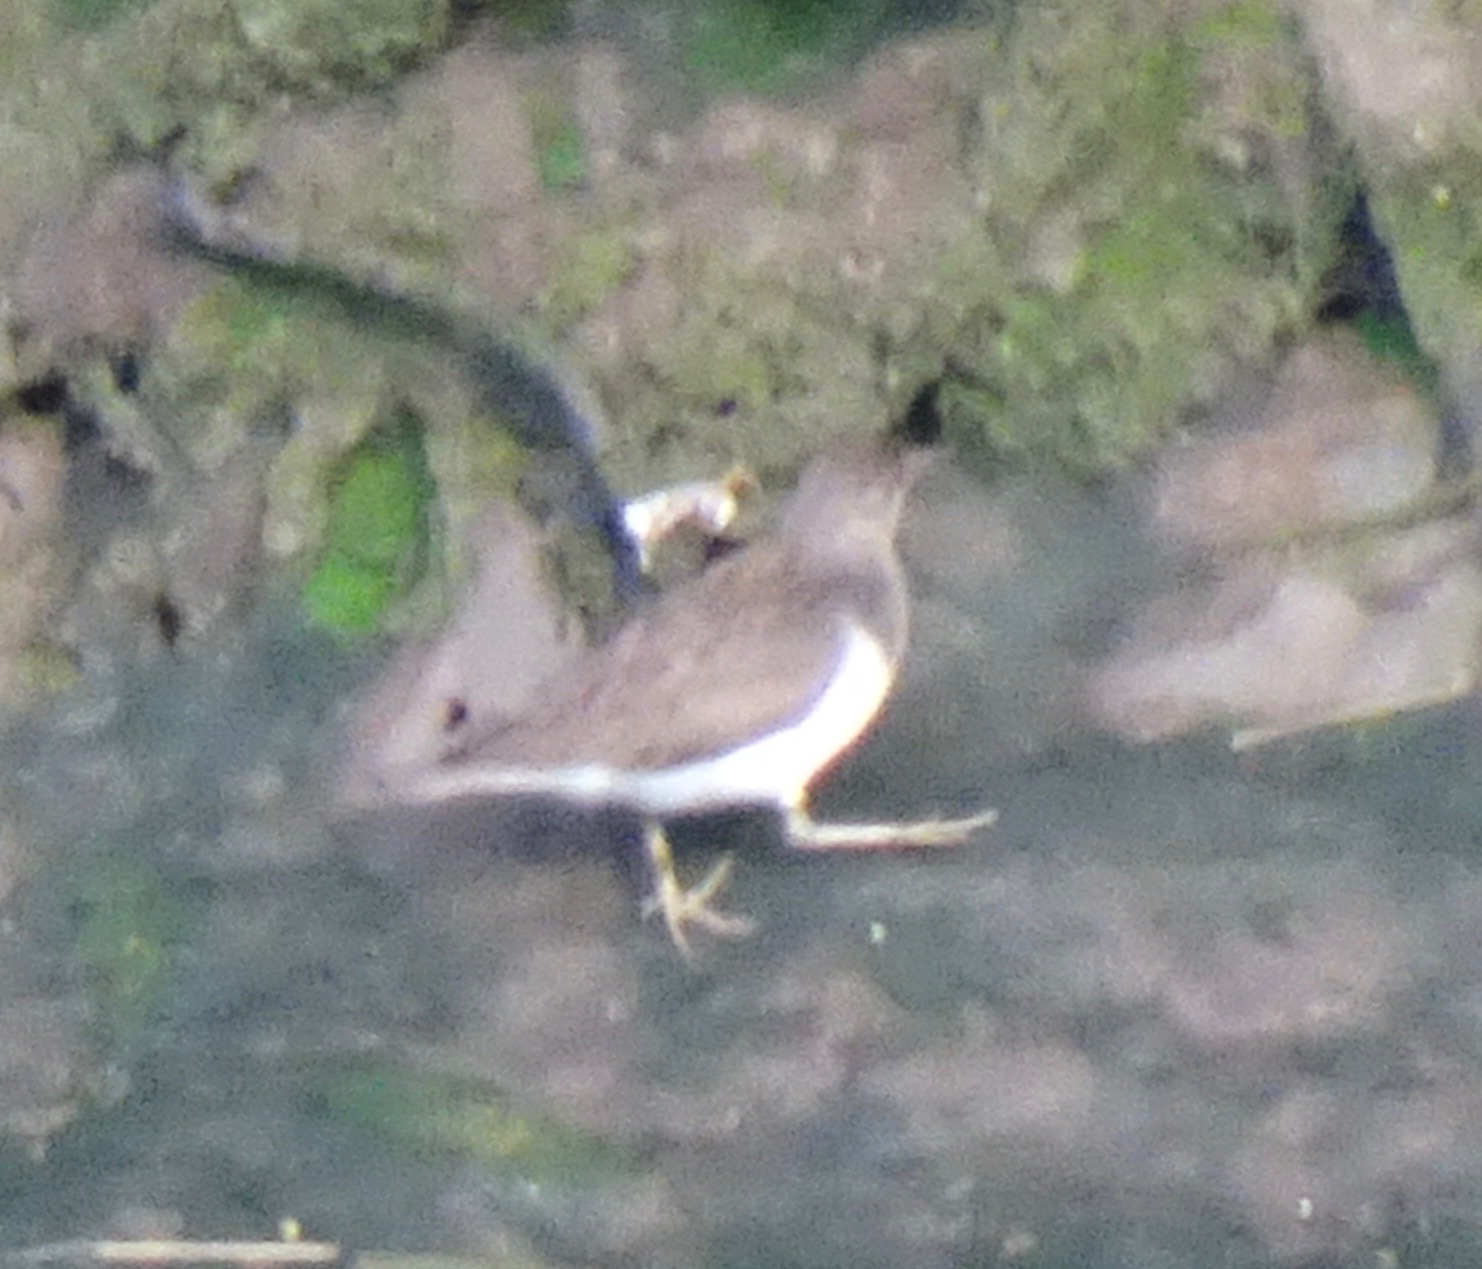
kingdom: Animalia
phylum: Chordata
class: Aves
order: Charadriiformes
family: Scolopacidae
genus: Actitis
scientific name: Actitis hypoleucos
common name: Common sandpiper
